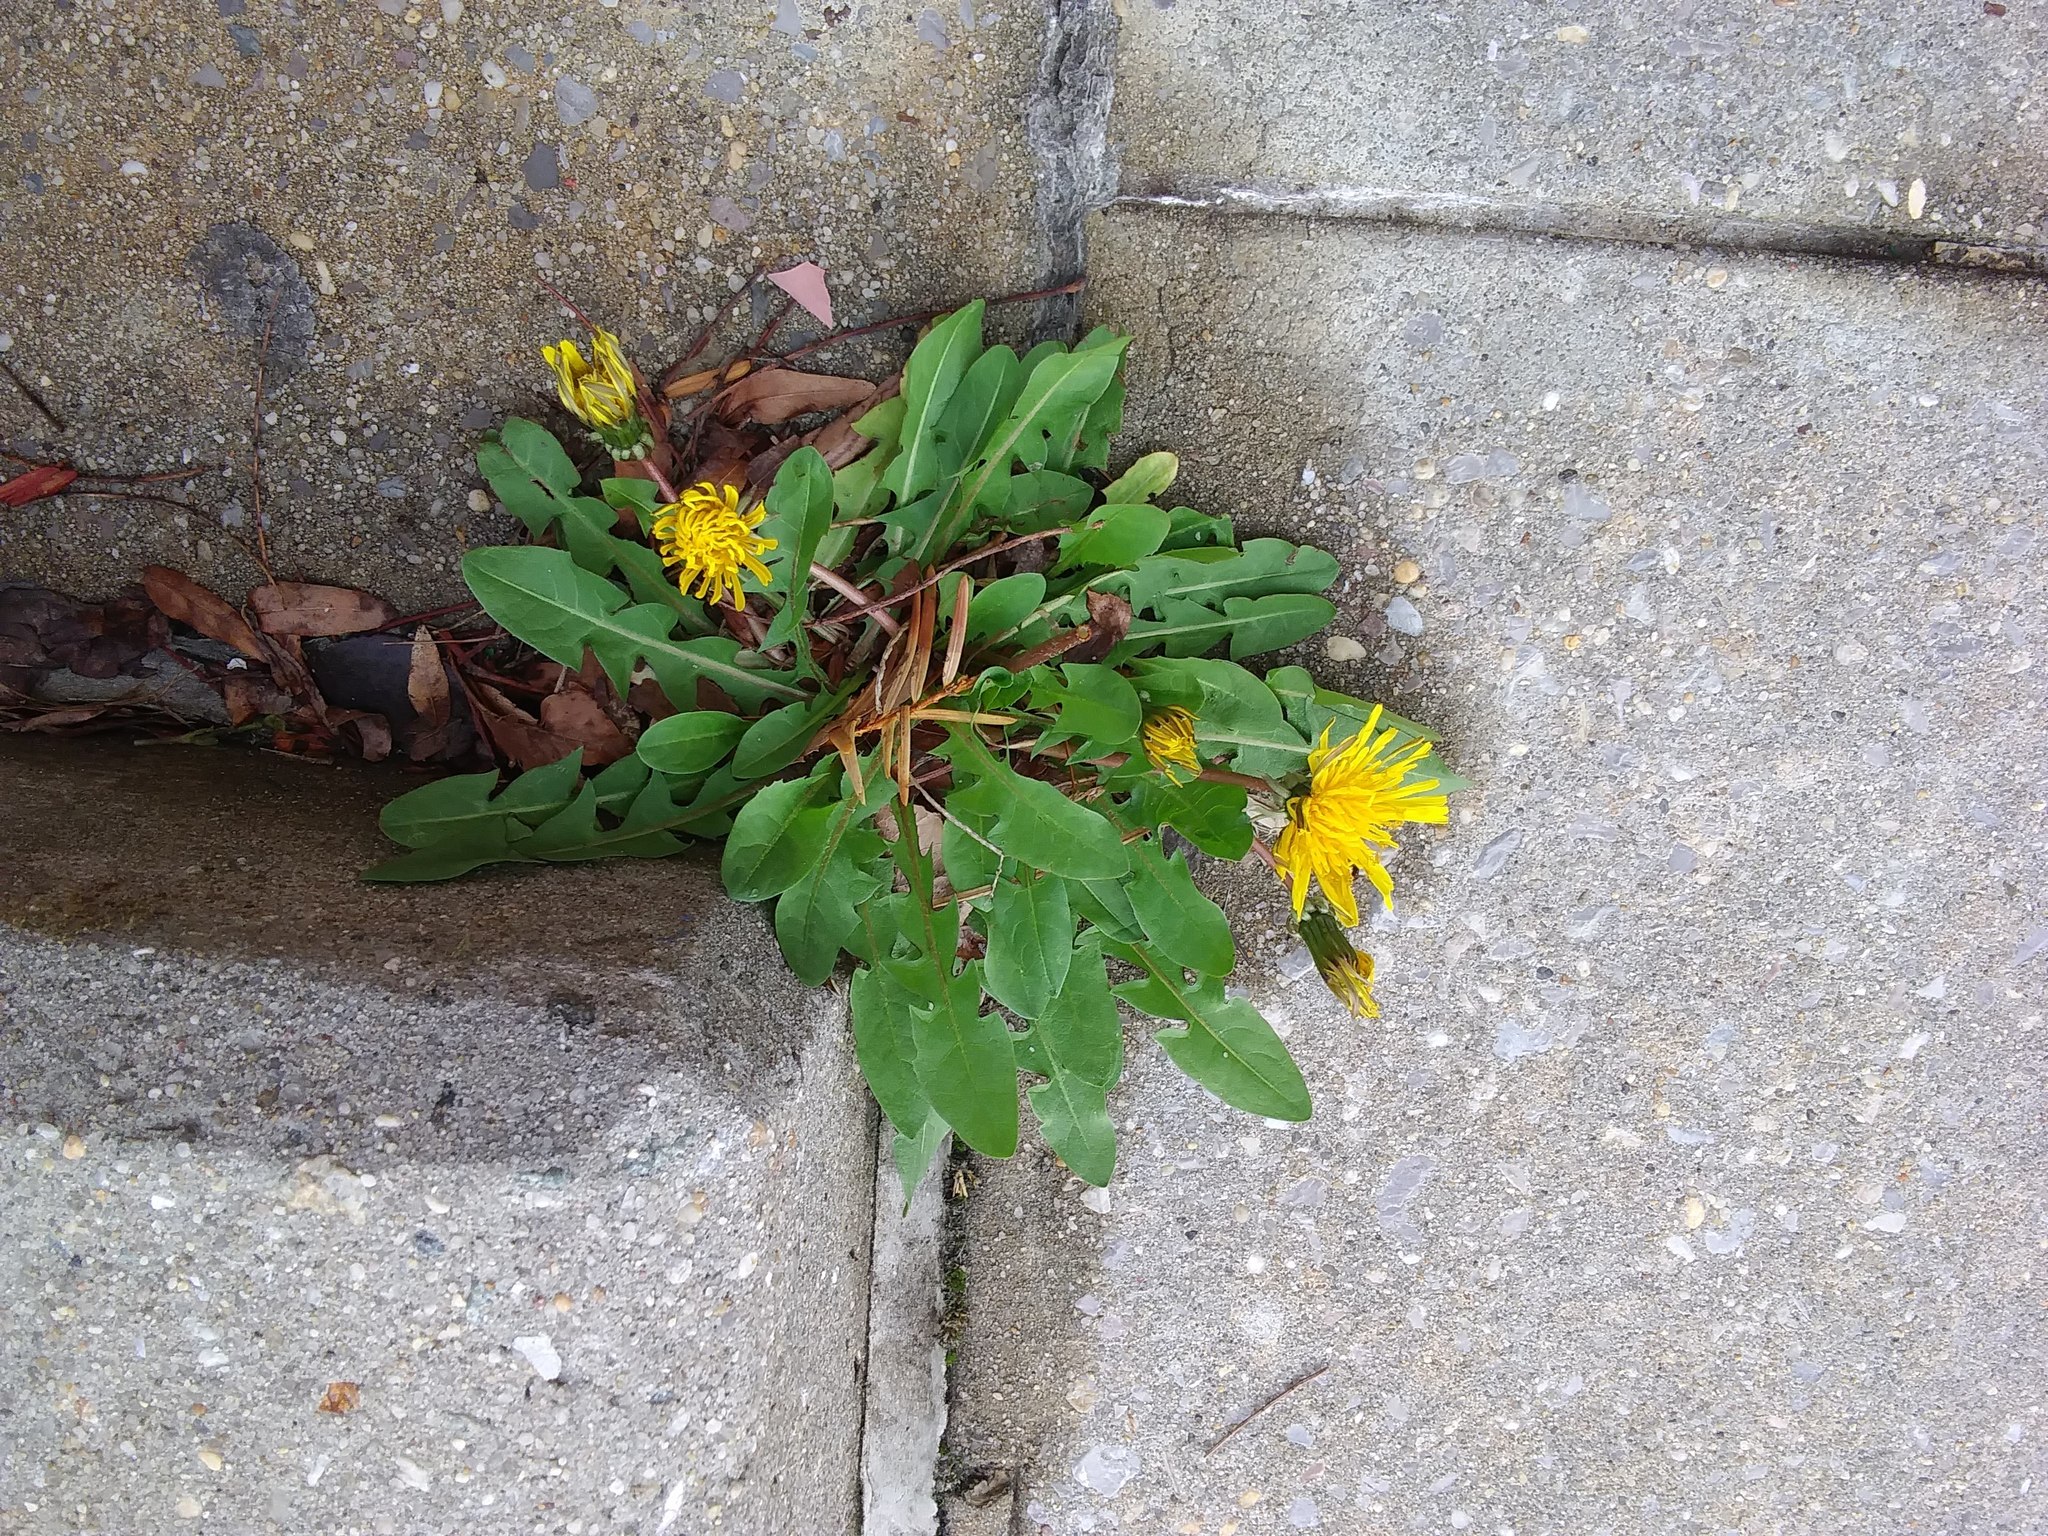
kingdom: Plantae
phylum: Tracheophyta
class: Magnoliopsida
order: Asterales
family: Asteraceae
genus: Taraxacum
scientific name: Taraxacum officinale
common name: Common dandelion
